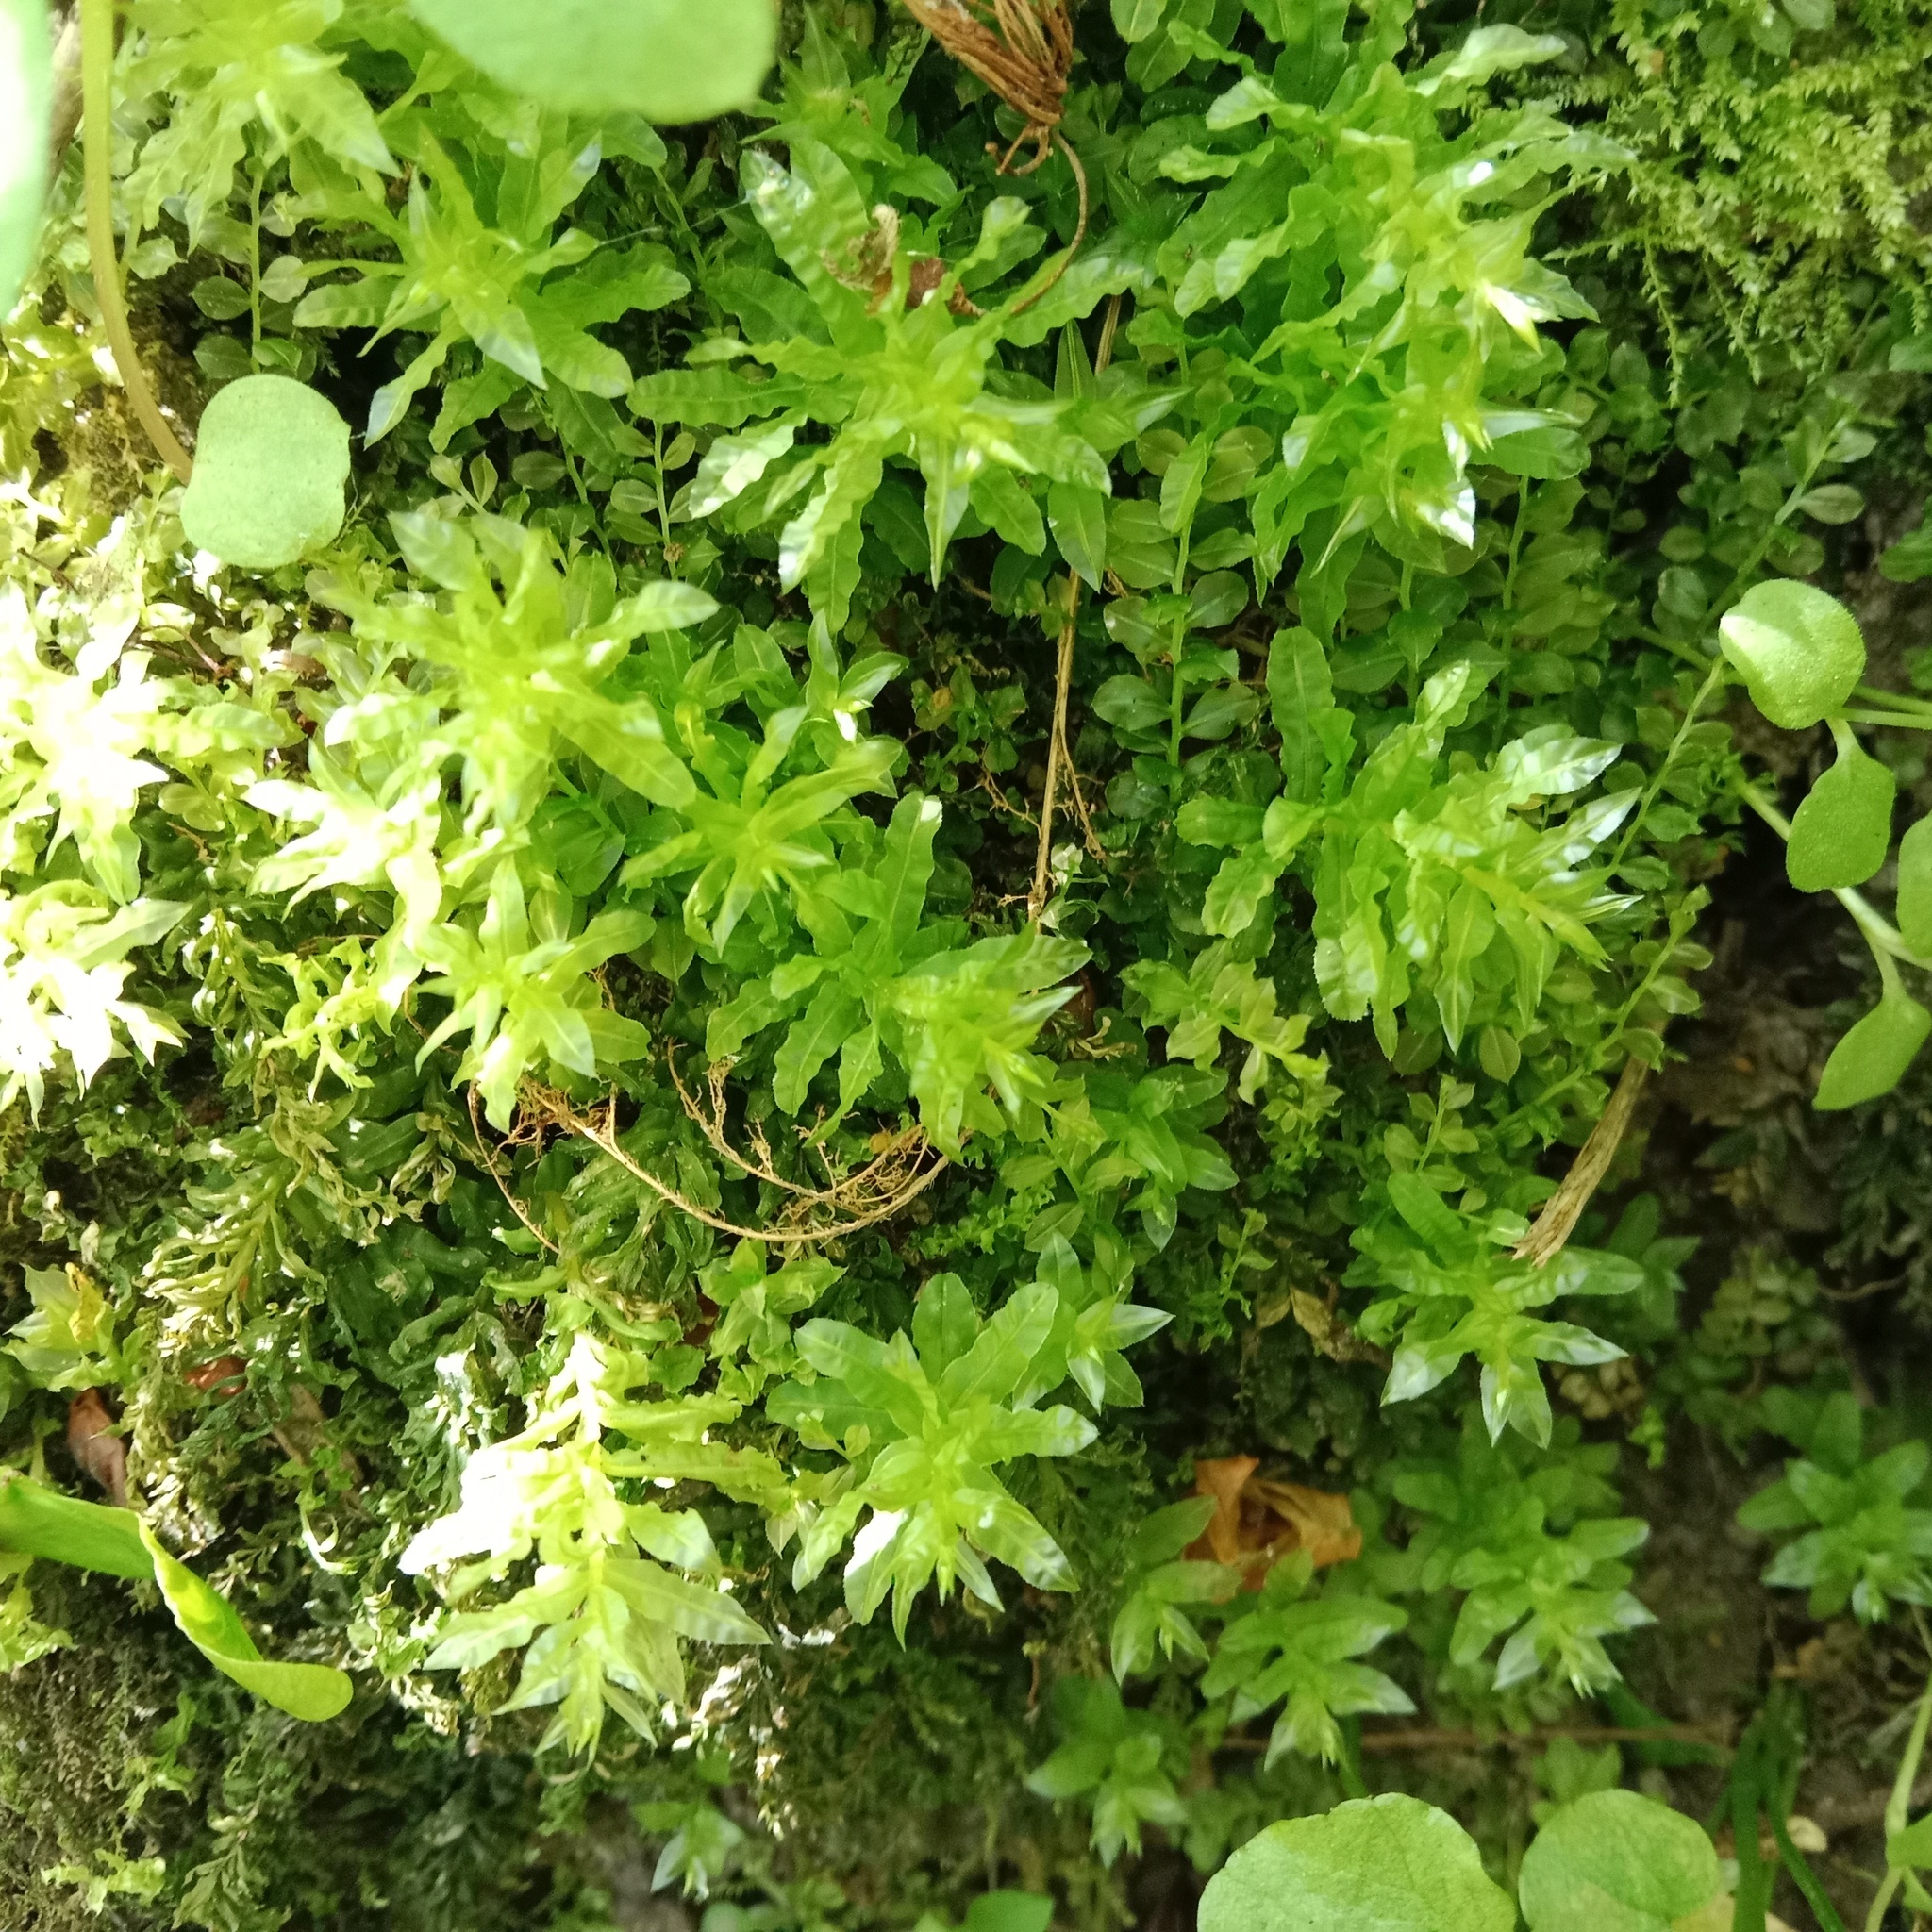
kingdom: Plantae
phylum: Bryophyta
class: Bryopsida
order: Bryales
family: Mniaceae
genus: Plagiomnium
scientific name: Plagiomnium undulatum
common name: Hart's-tongue thyme-moss
